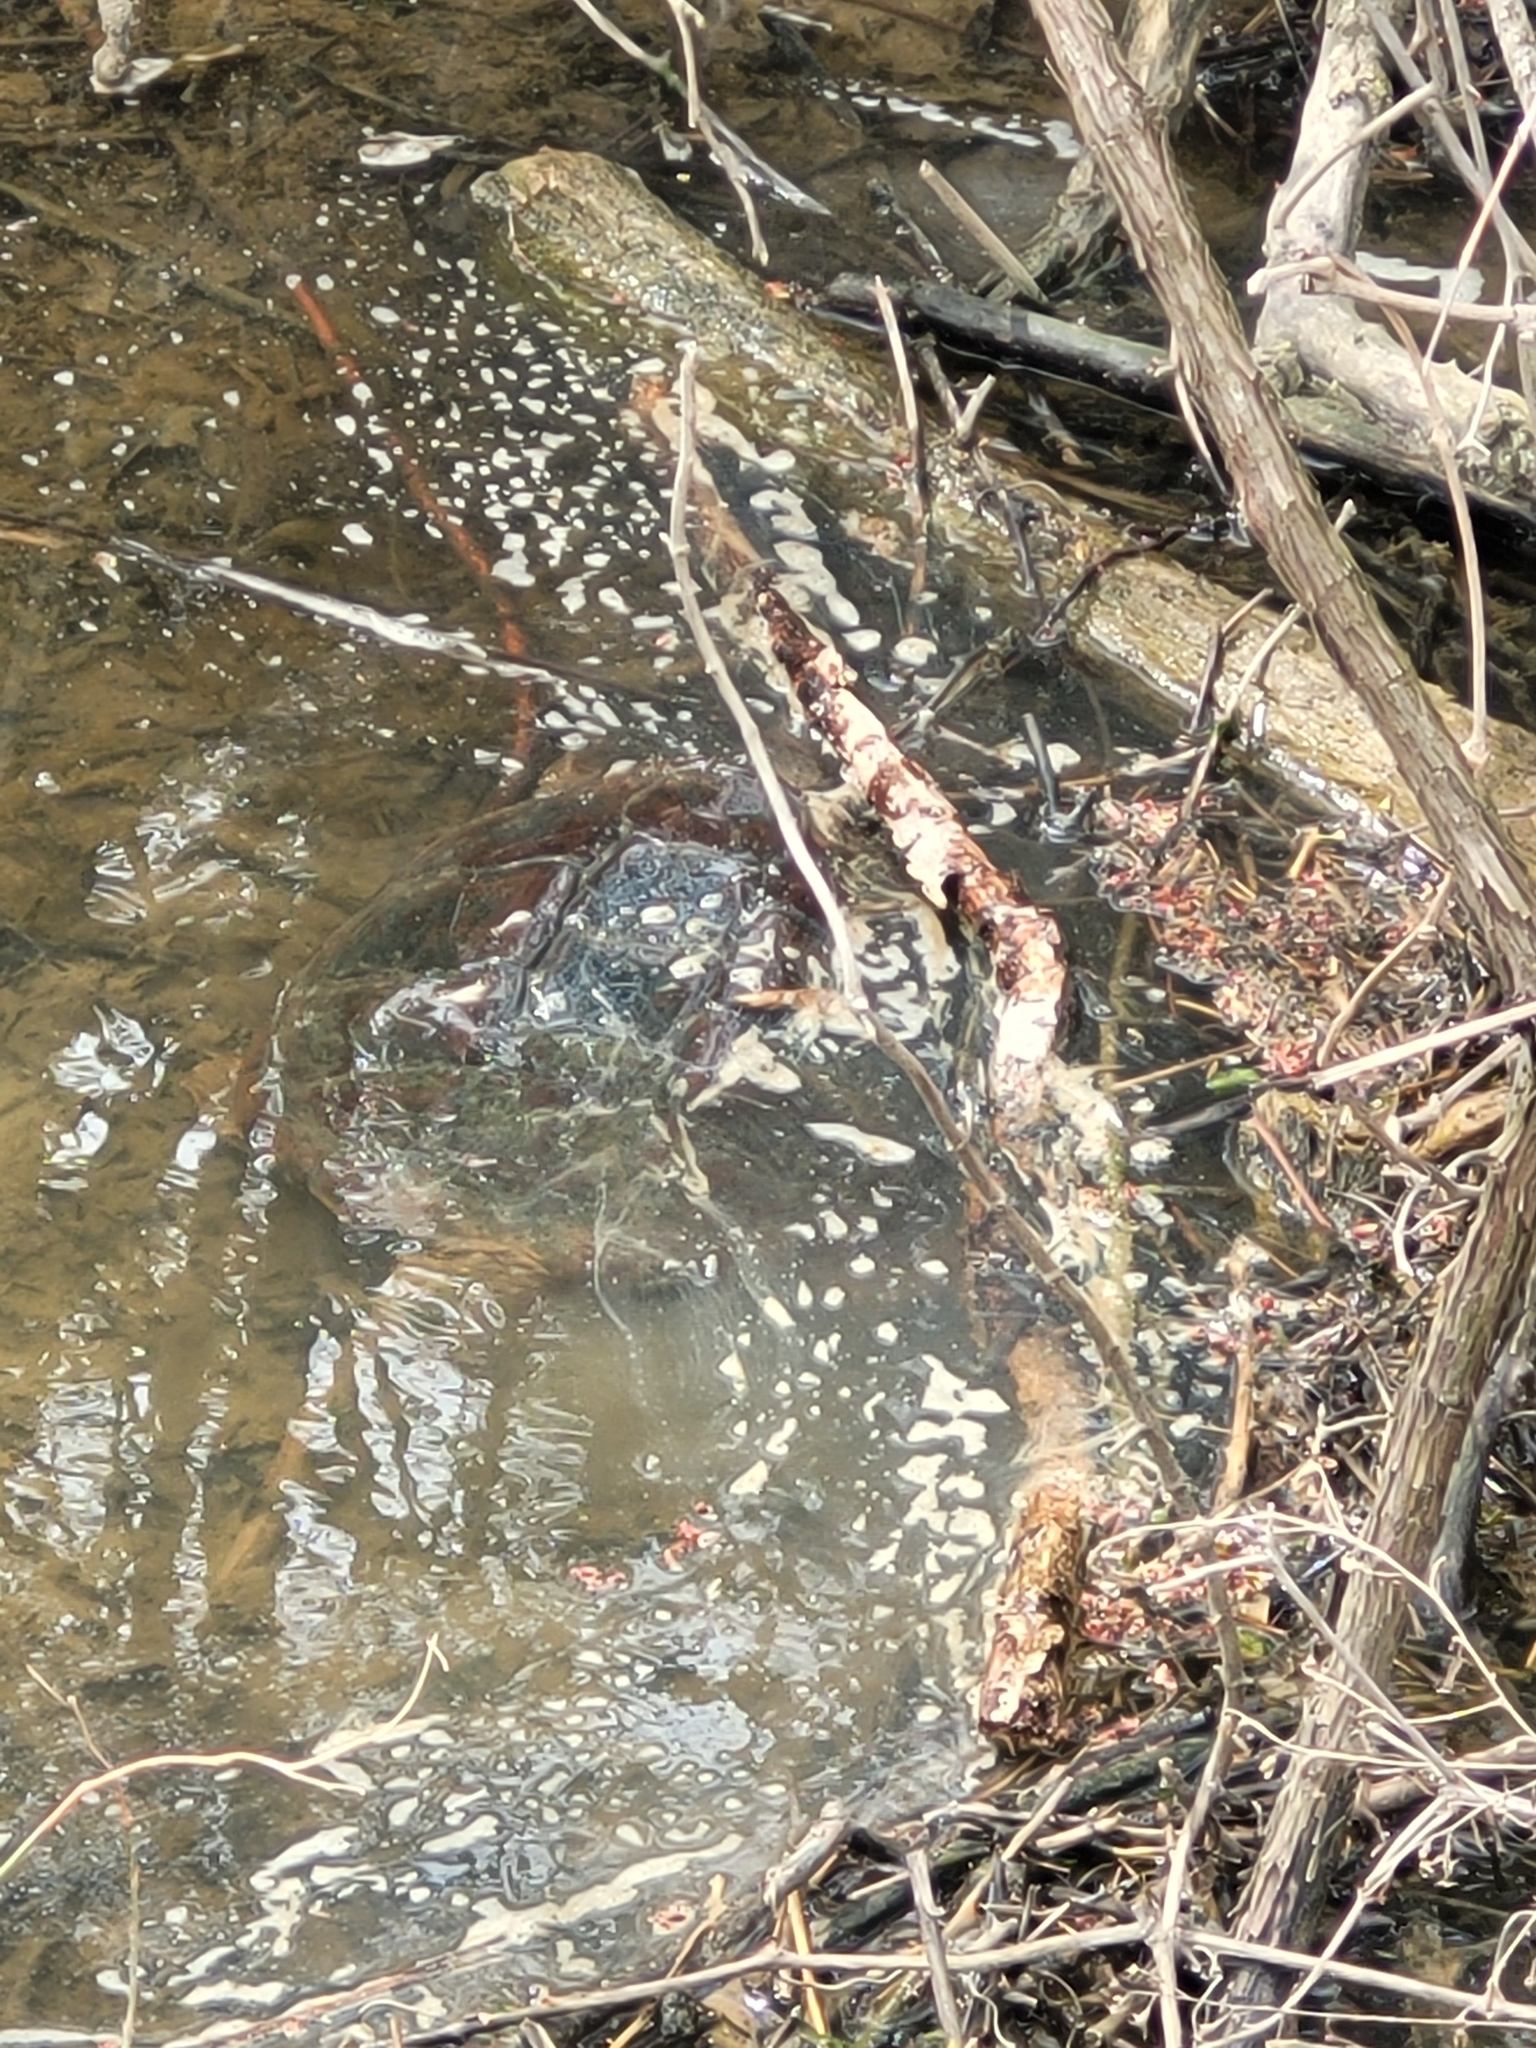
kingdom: Animalia
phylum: Chordata
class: Testudines
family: Chelydridae
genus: Chelydra
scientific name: Chelydra serpentina
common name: Common snapping turtle
